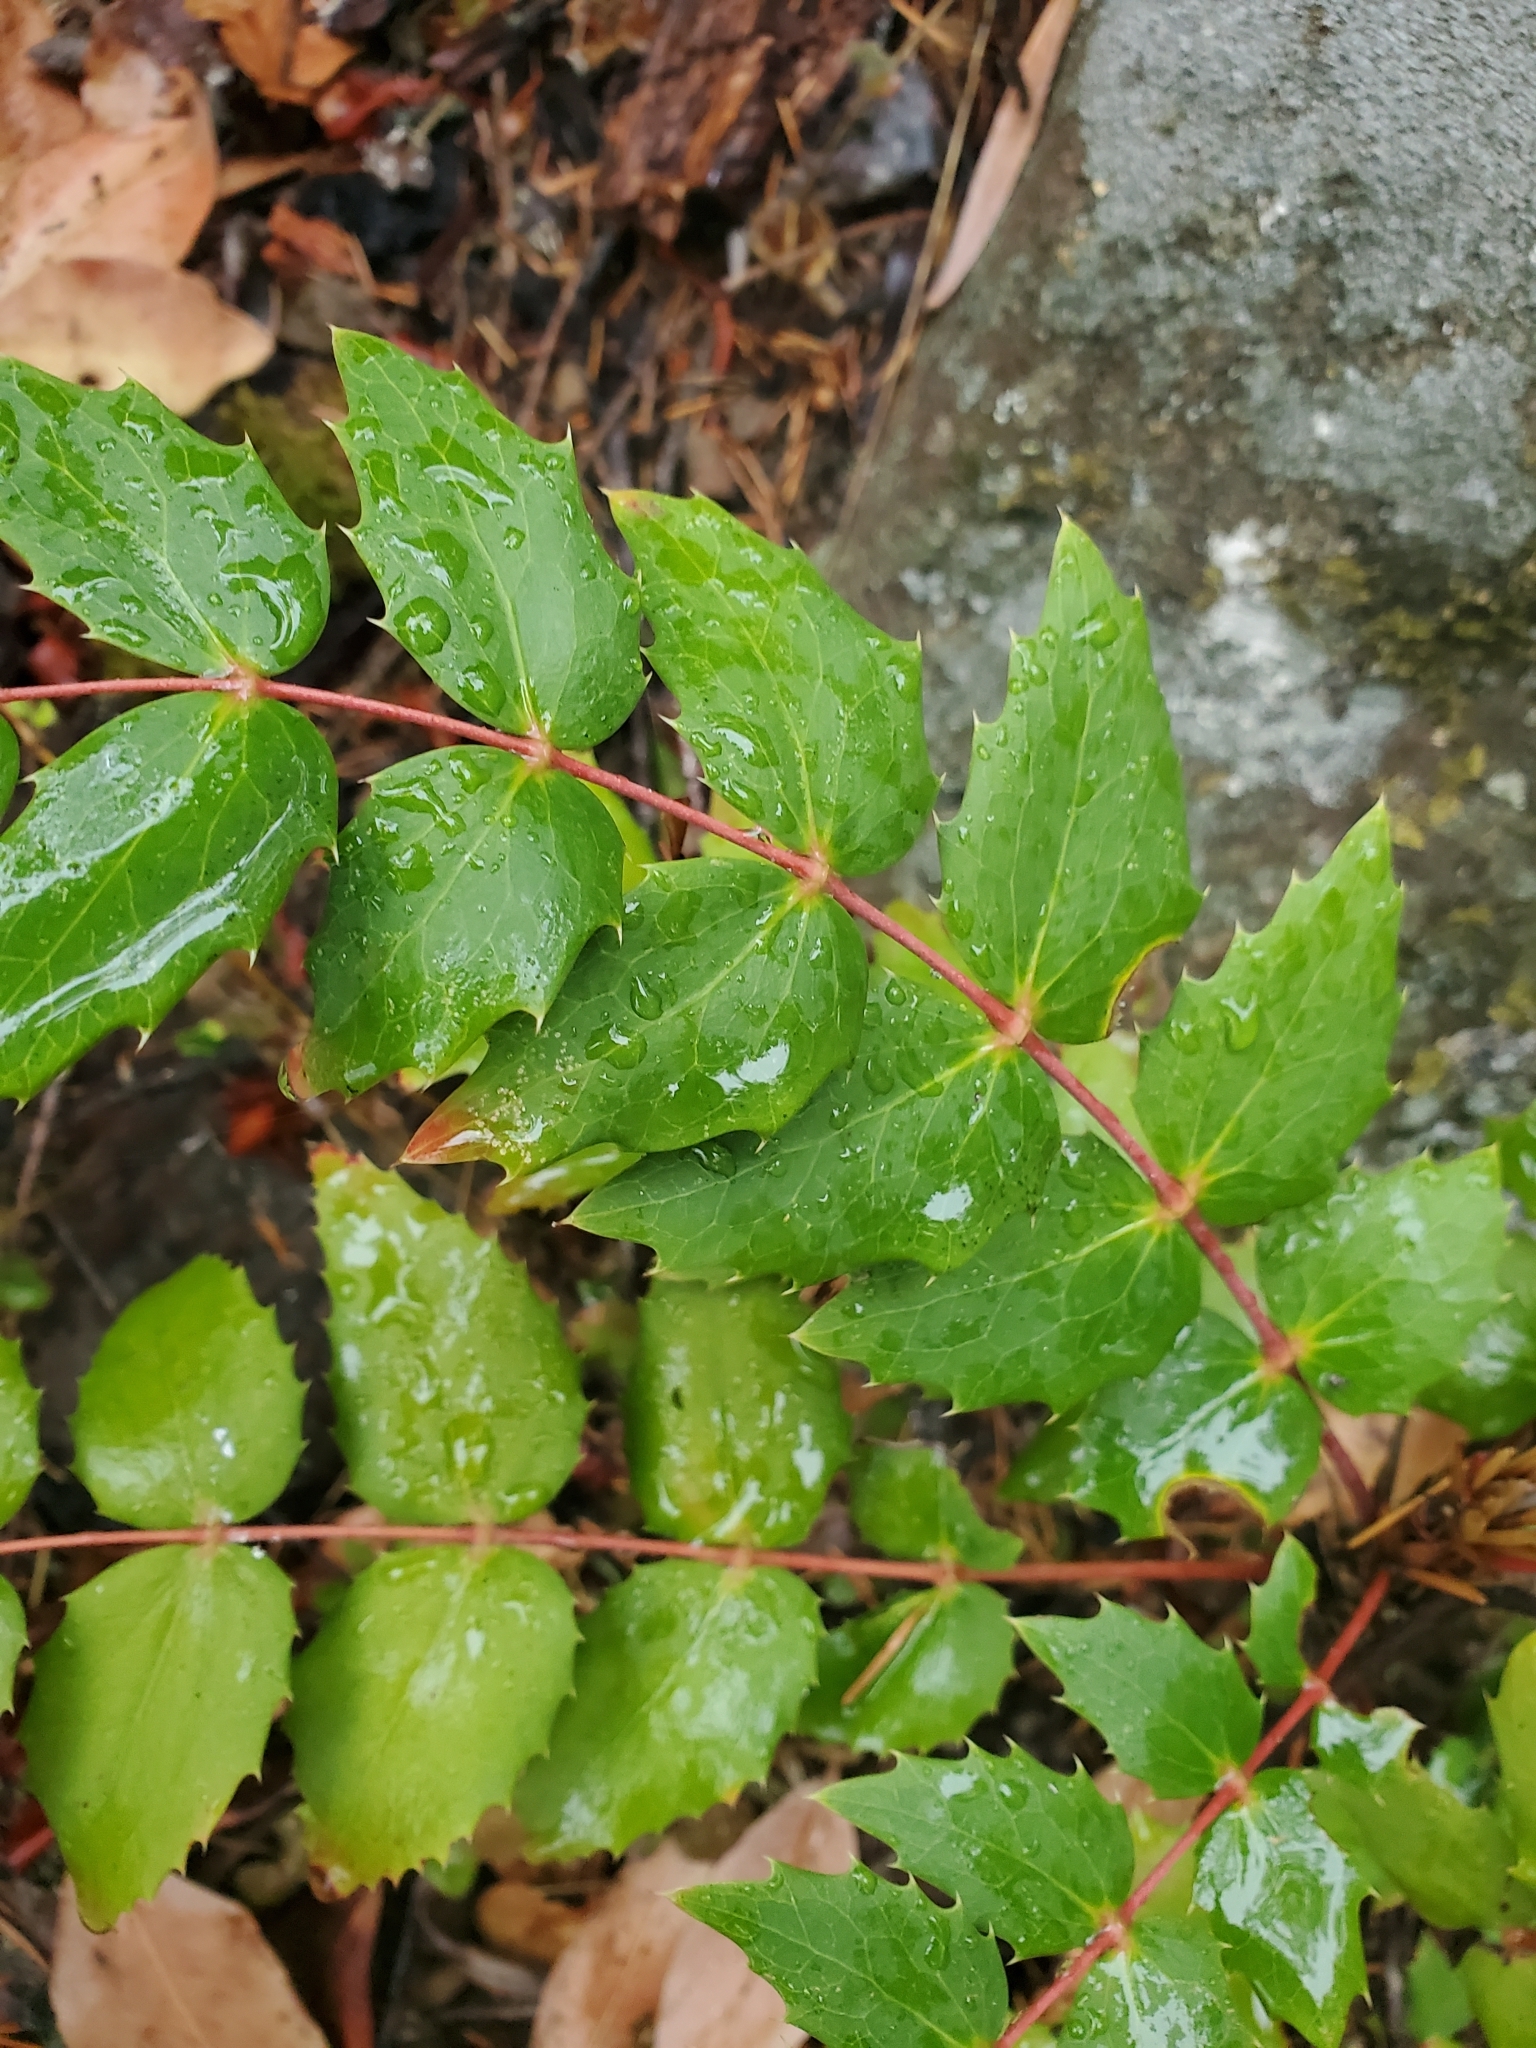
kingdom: Plantae
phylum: Tracheophyta
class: Magnoliopsida
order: Ranunculales
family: Berberidaceae
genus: Mahonia
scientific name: Mahonia nervosa
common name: Cascade oregon-grape
